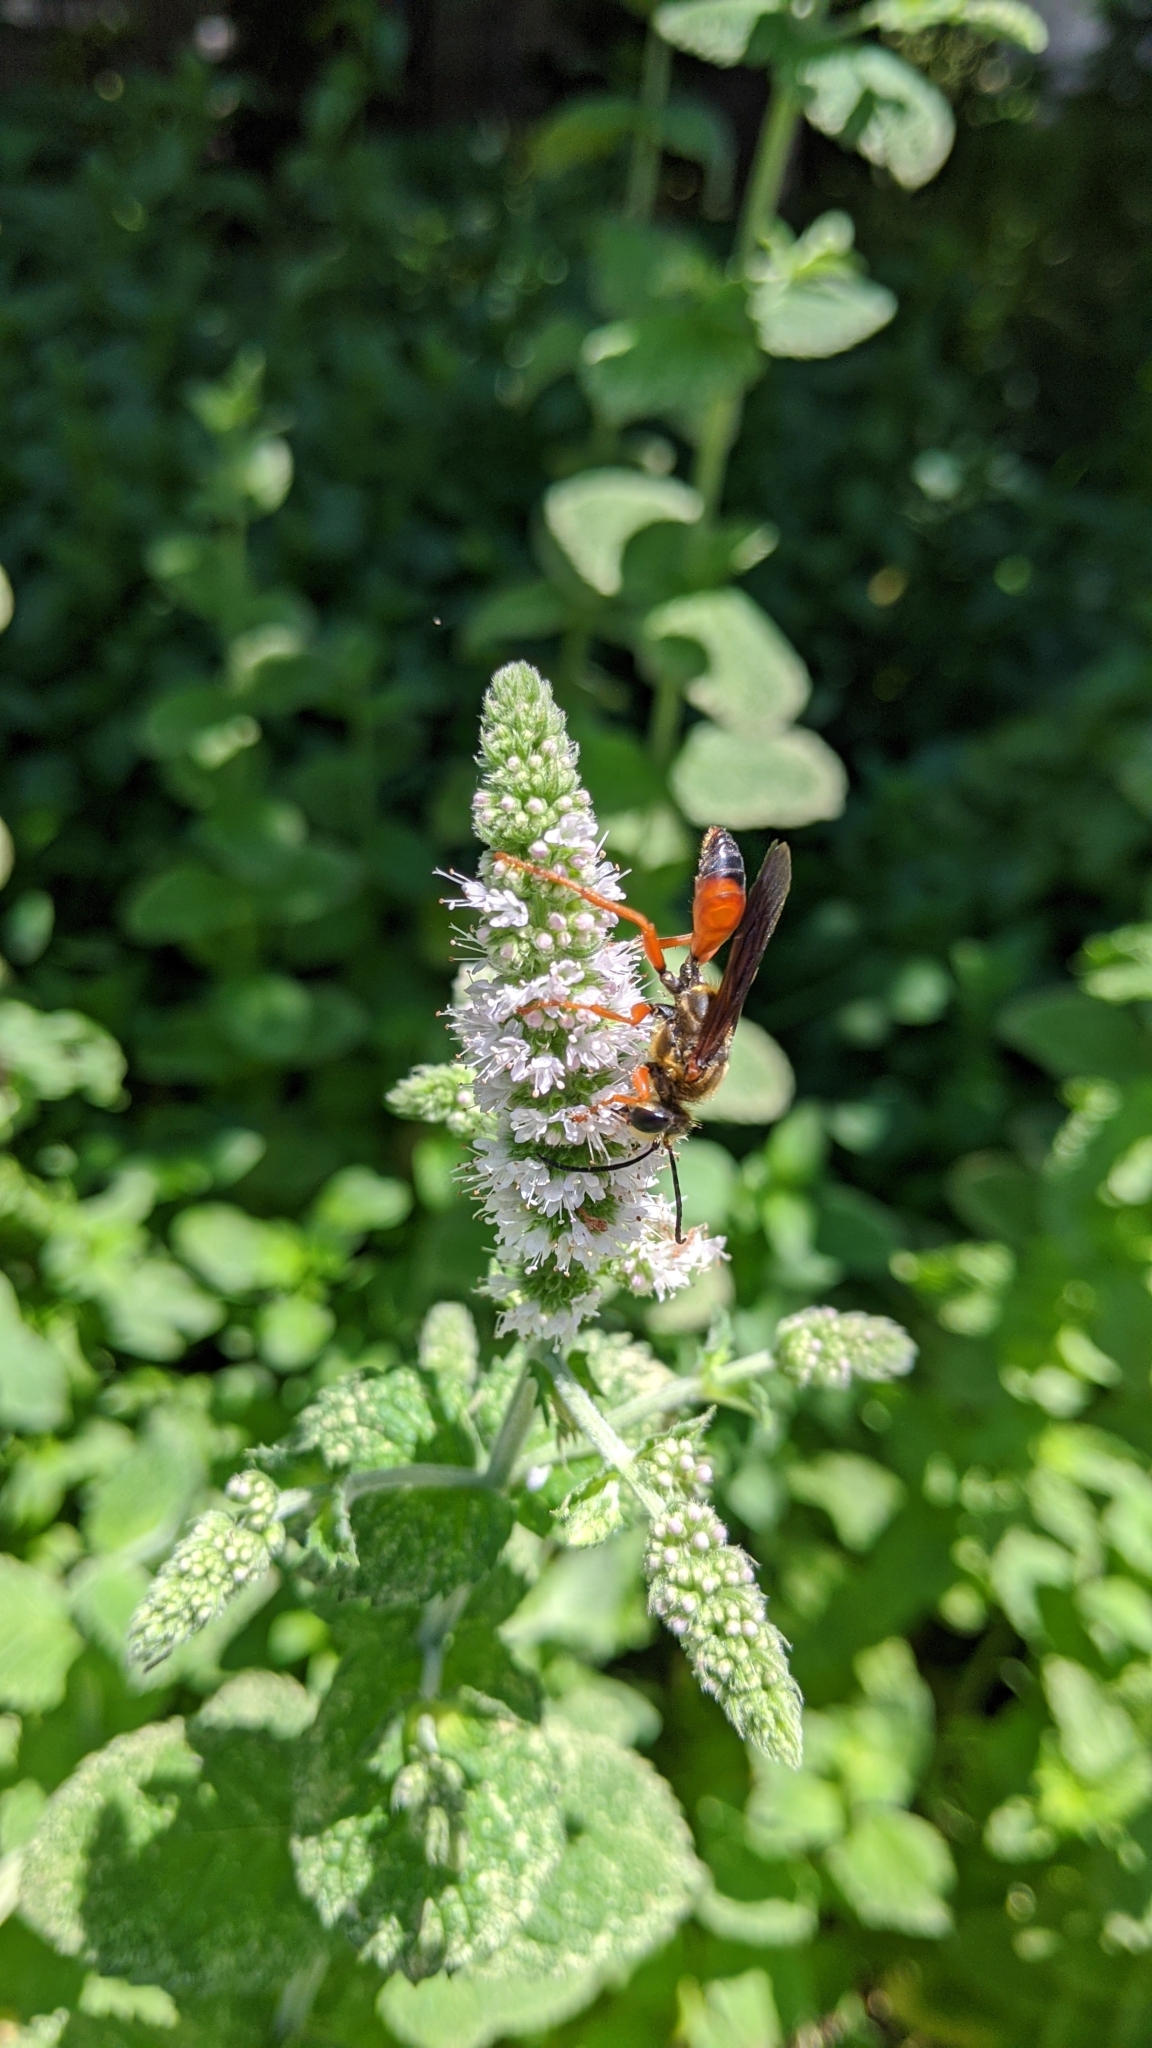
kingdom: Animalia
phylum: Arthropoda
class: Insecta
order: Hymenoptera
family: Sphecidae
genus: Sphex
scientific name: Sphex ichneumoneus
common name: Great golden digger wasp
